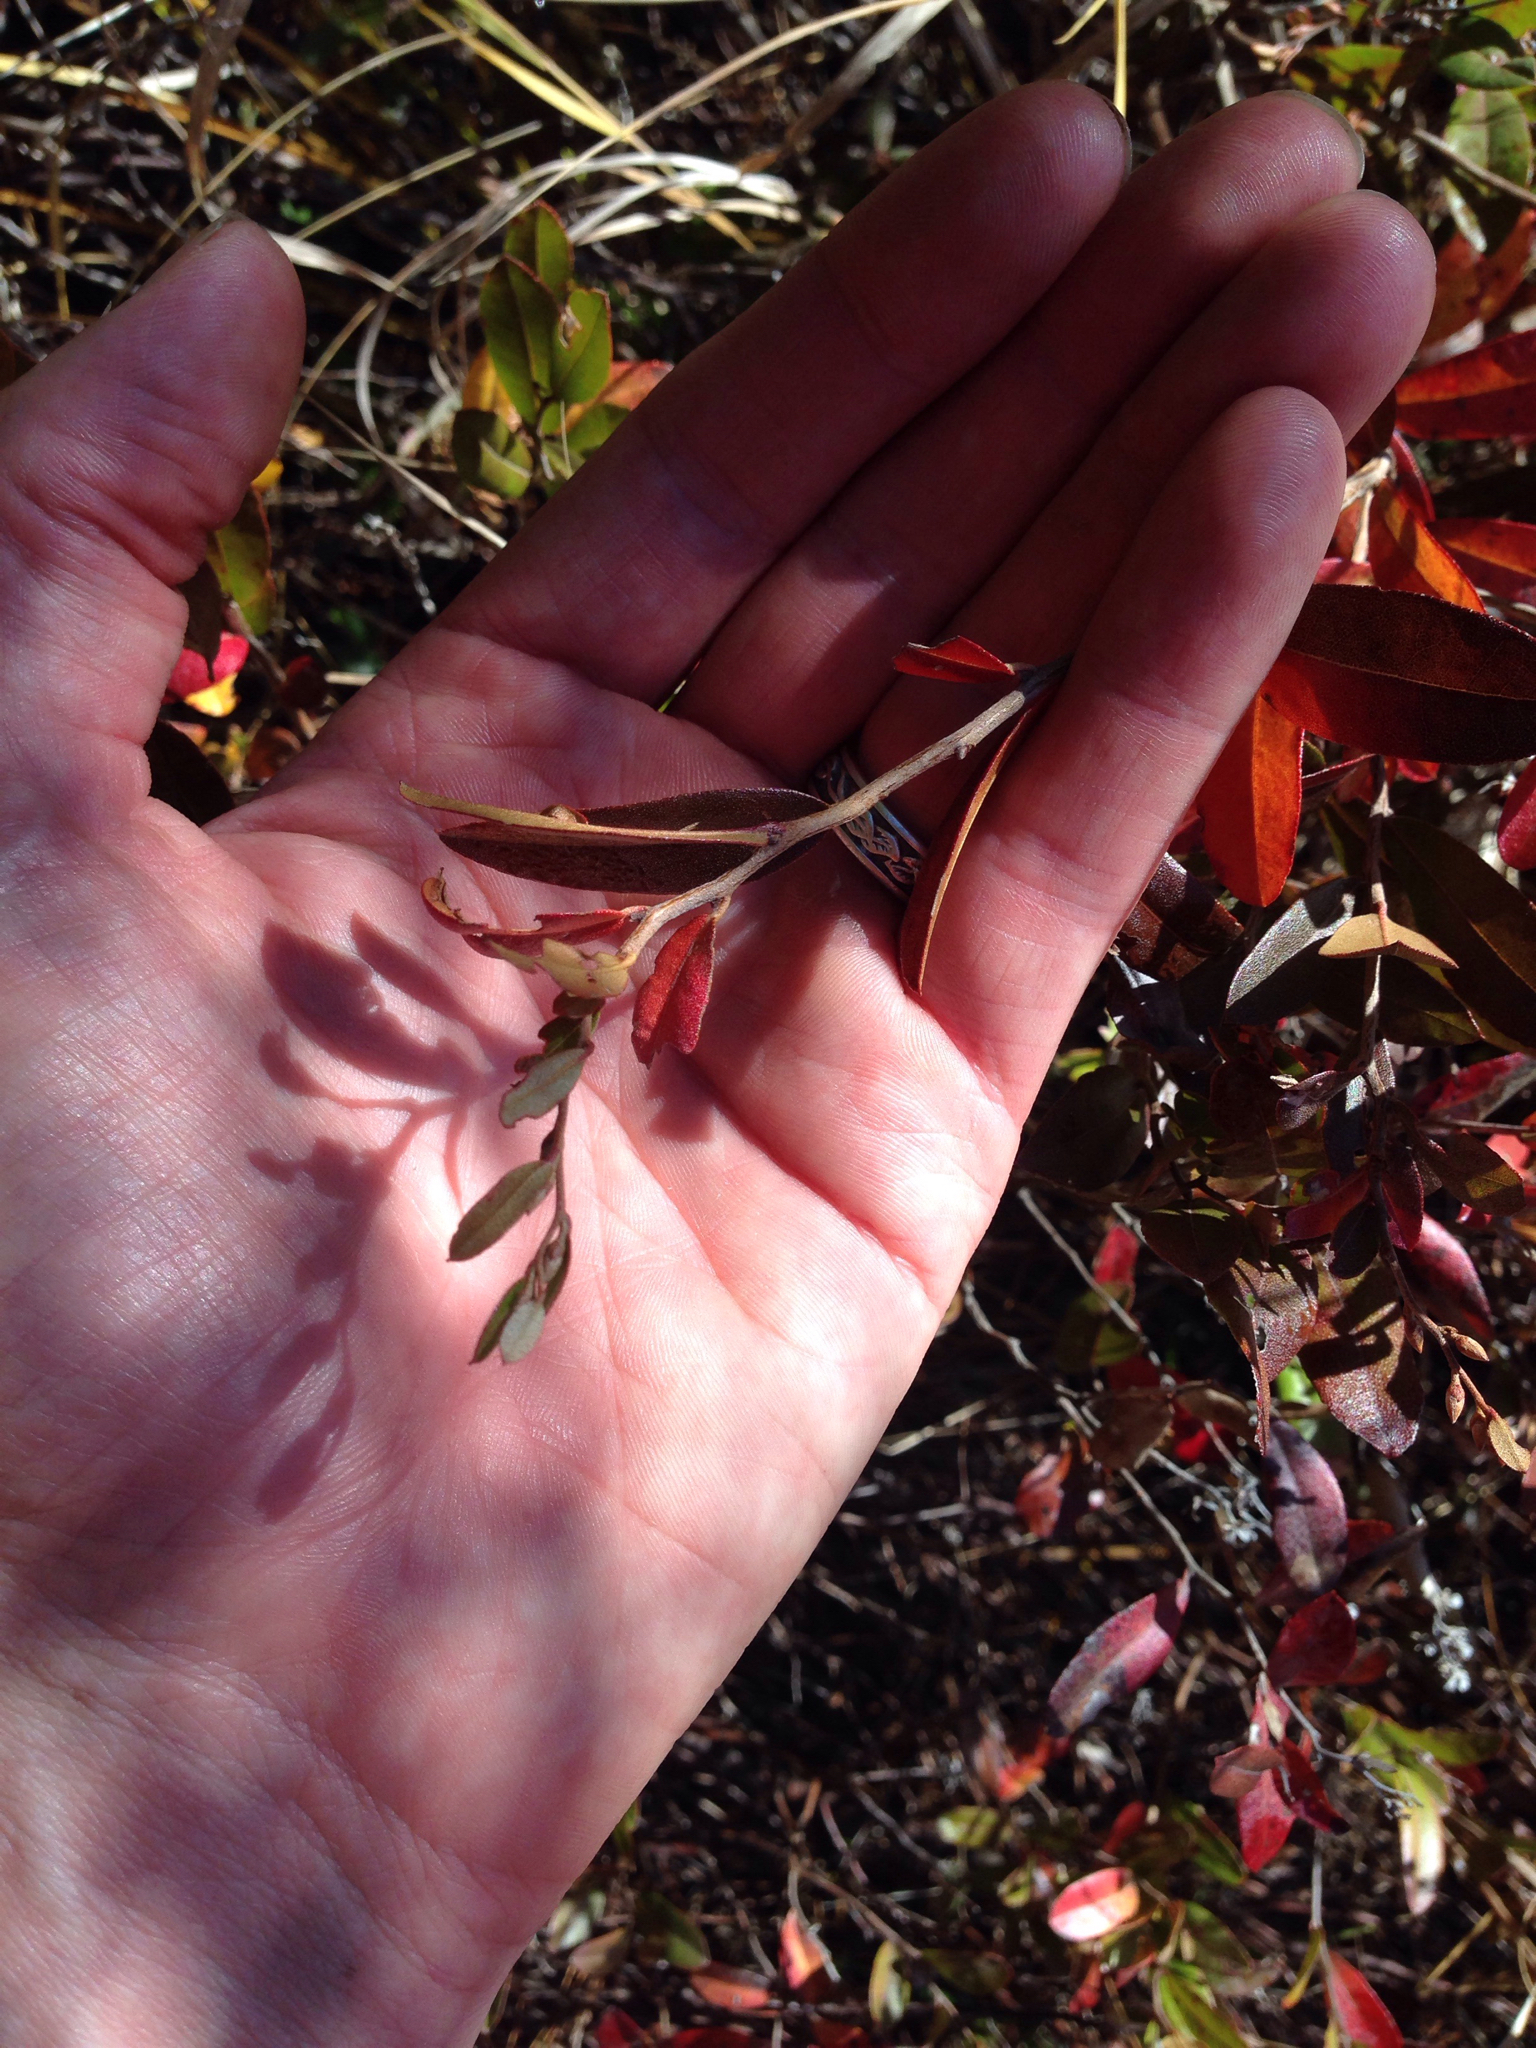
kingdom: Plantae
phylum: Tracheophyta
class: Magnoliopsida
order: Ericales
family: Ericaceae
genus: Chamaedaphne
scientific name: Chamaedaphne calyculata
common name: Leatherleaf
